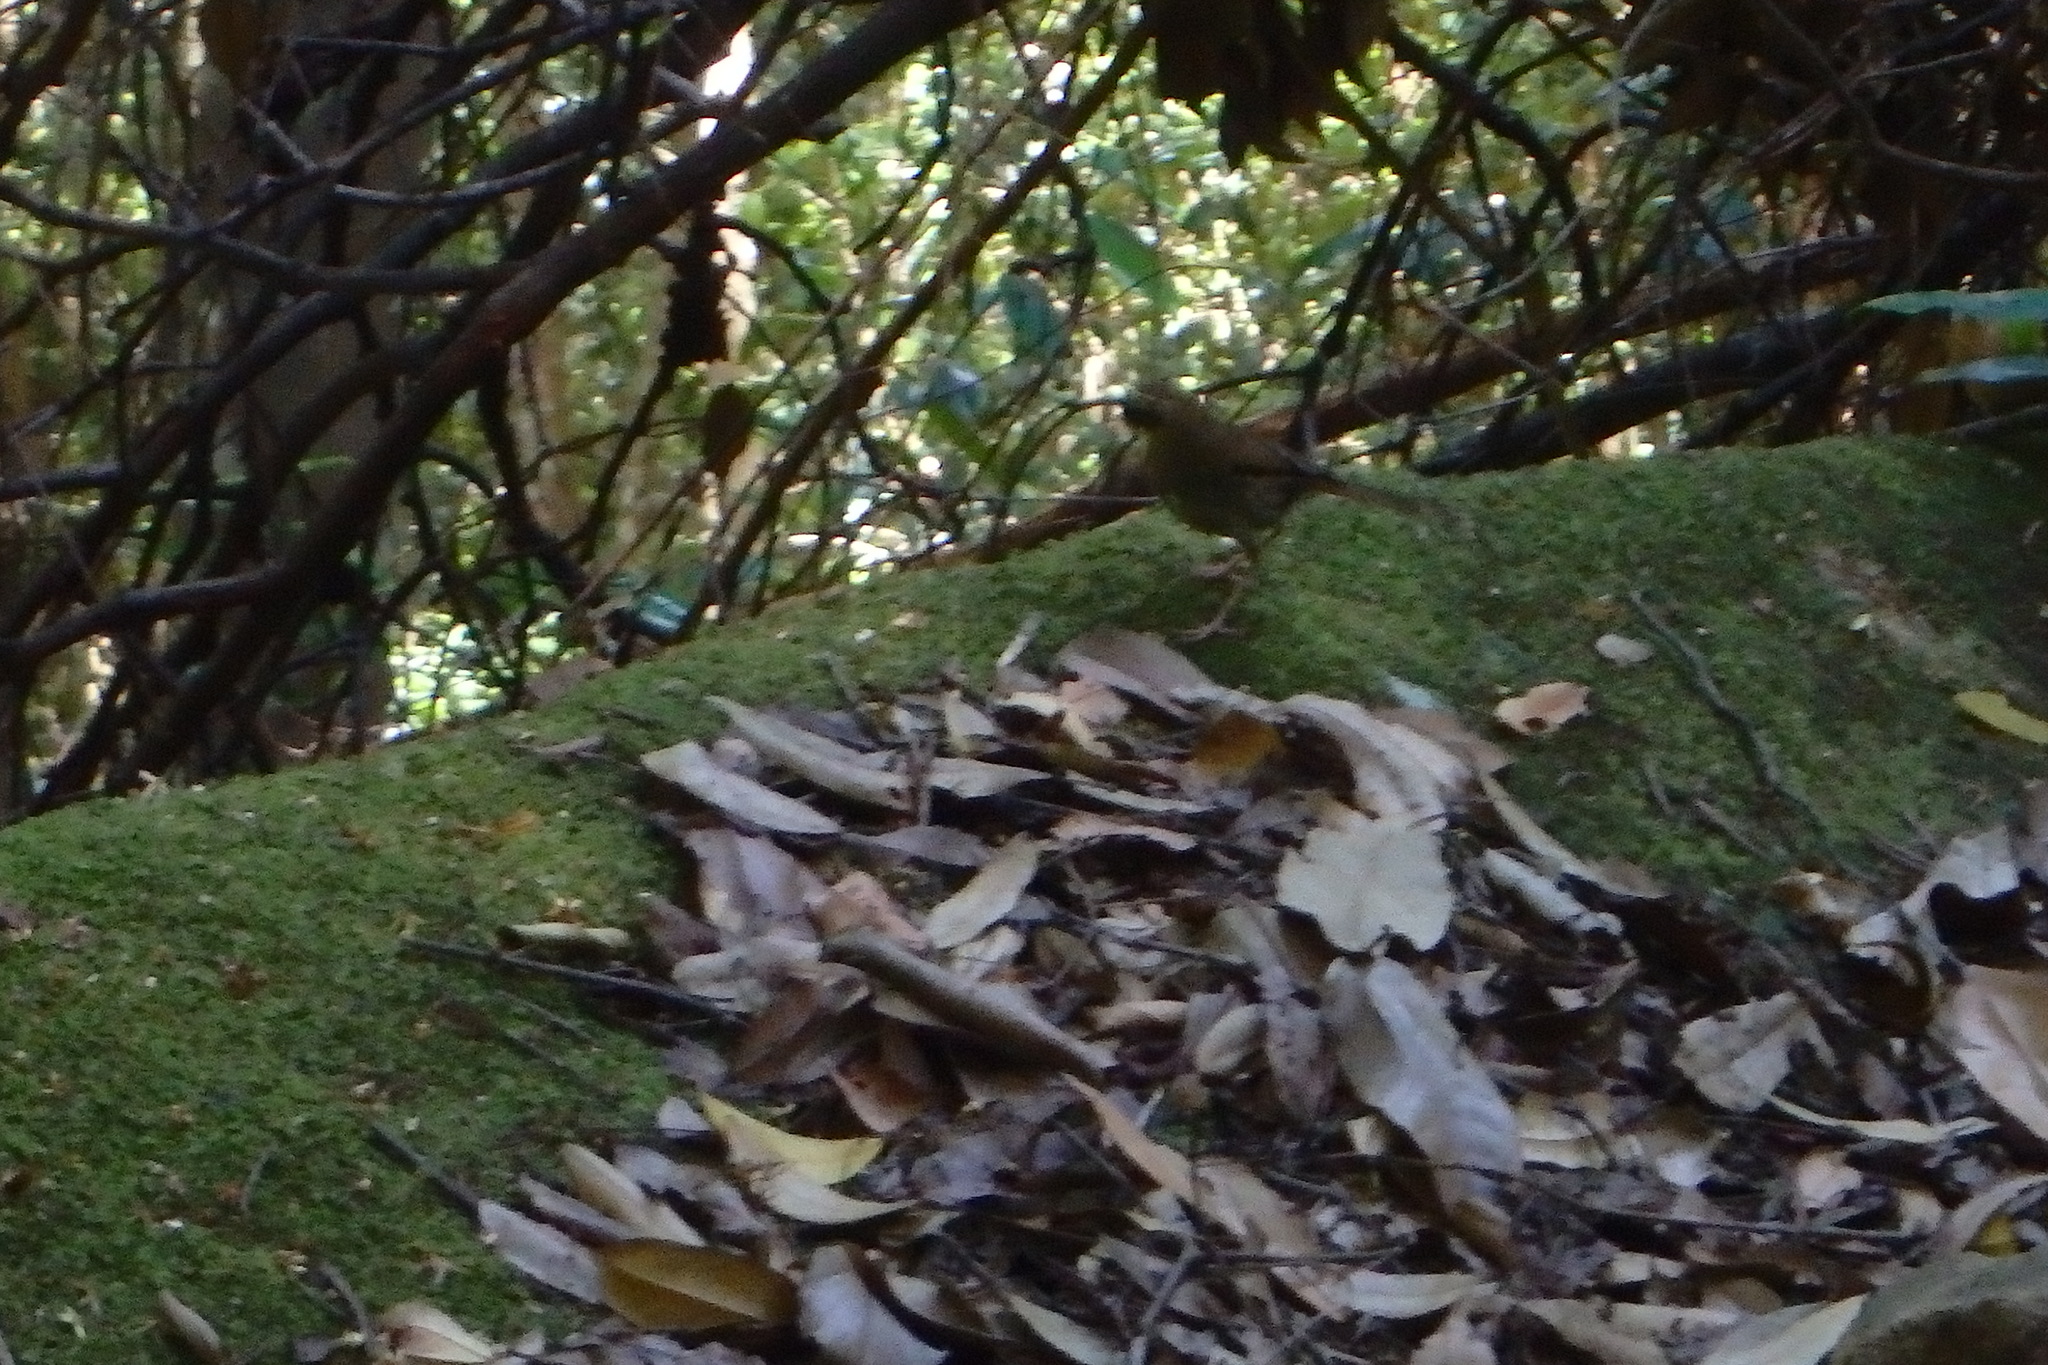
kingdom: Animalia
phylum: Chordata
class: Aves
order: Passeriformes
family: Acanthizidae
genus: Sericornis
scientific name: Sericornis citreogularis
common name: Yellow-throated scrubwren
